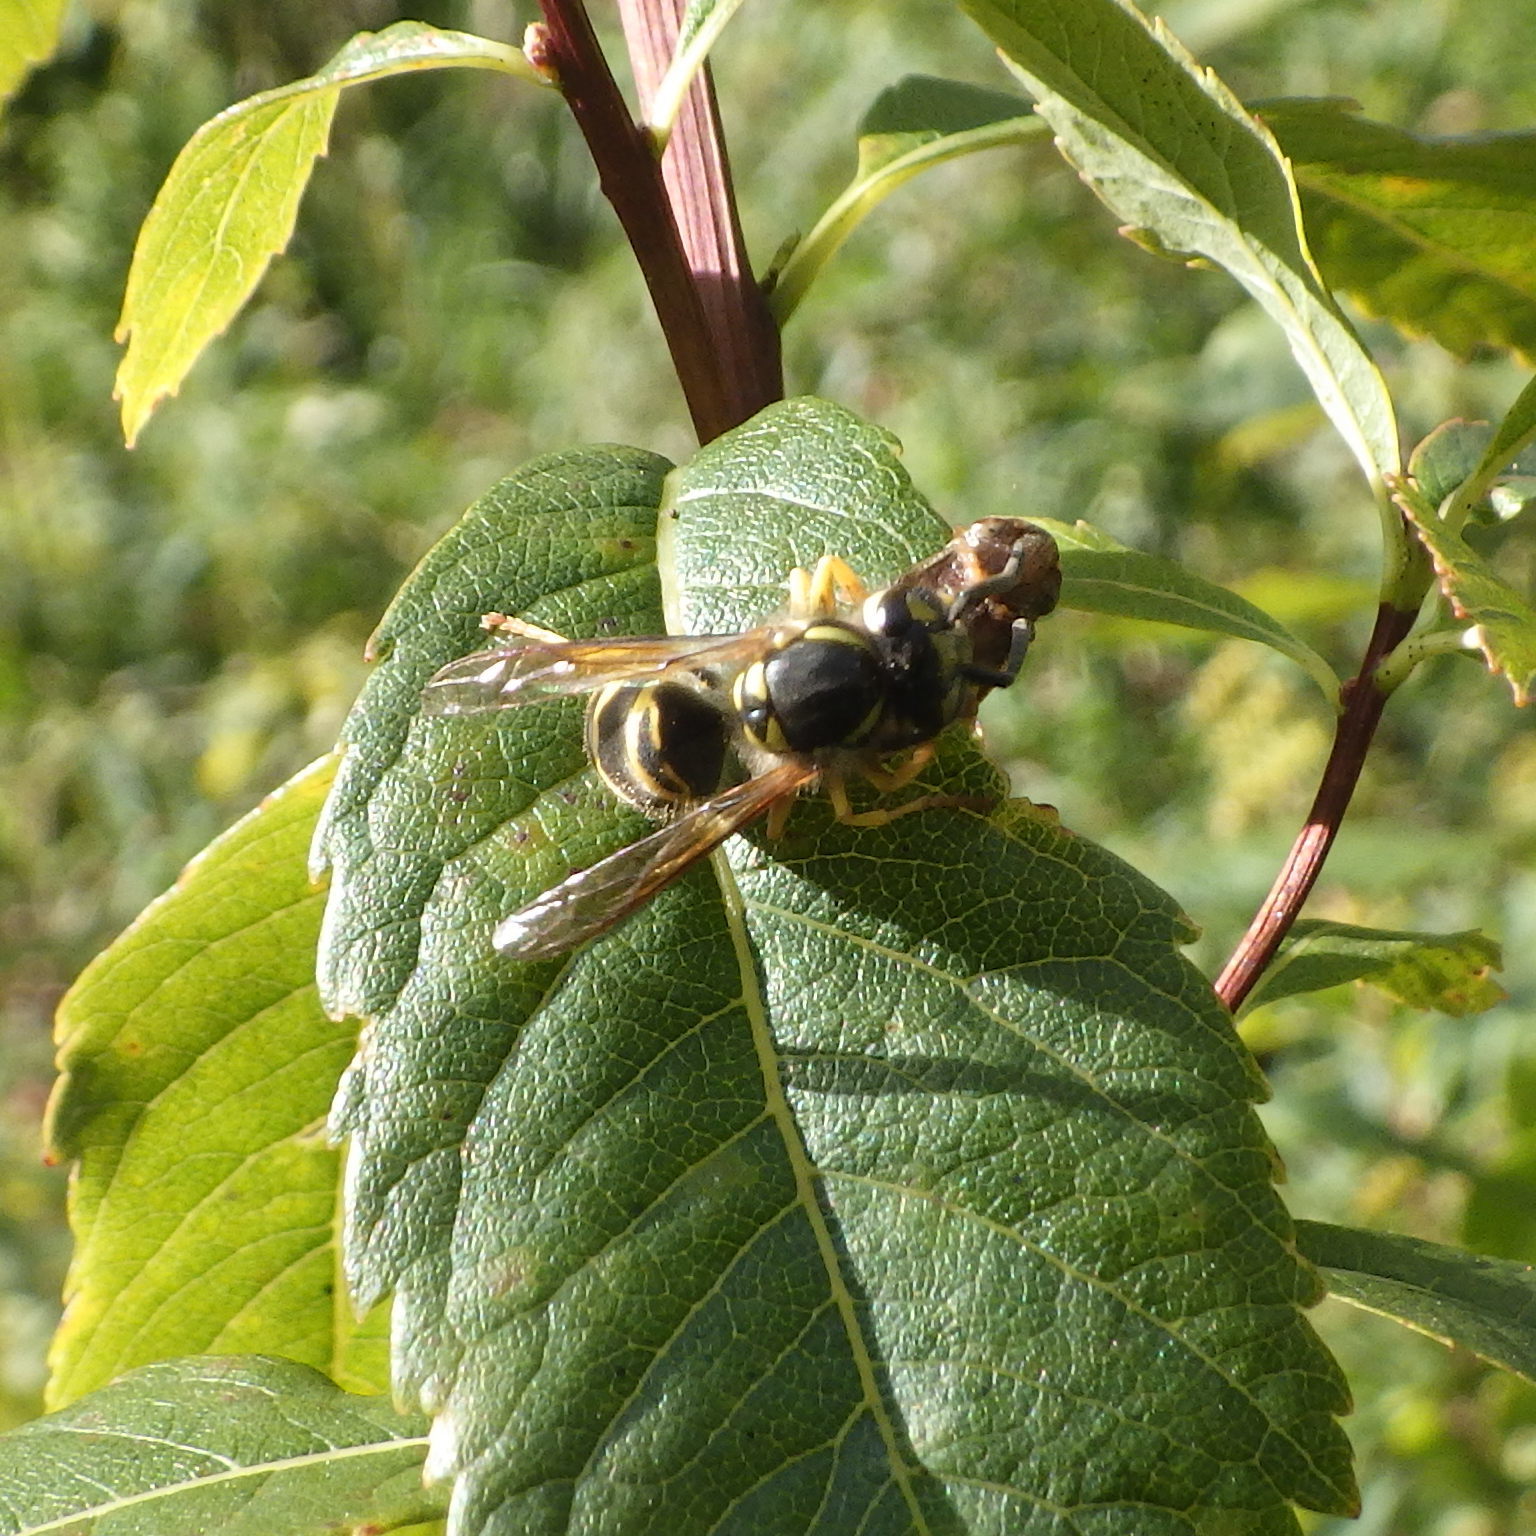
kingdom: Animalia
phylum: Arthropoda
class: Insecta
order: Hymenoptera
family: Vespidae
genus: Vespula
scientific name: Vespula maculifrons
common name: Eastern yellowjacket
